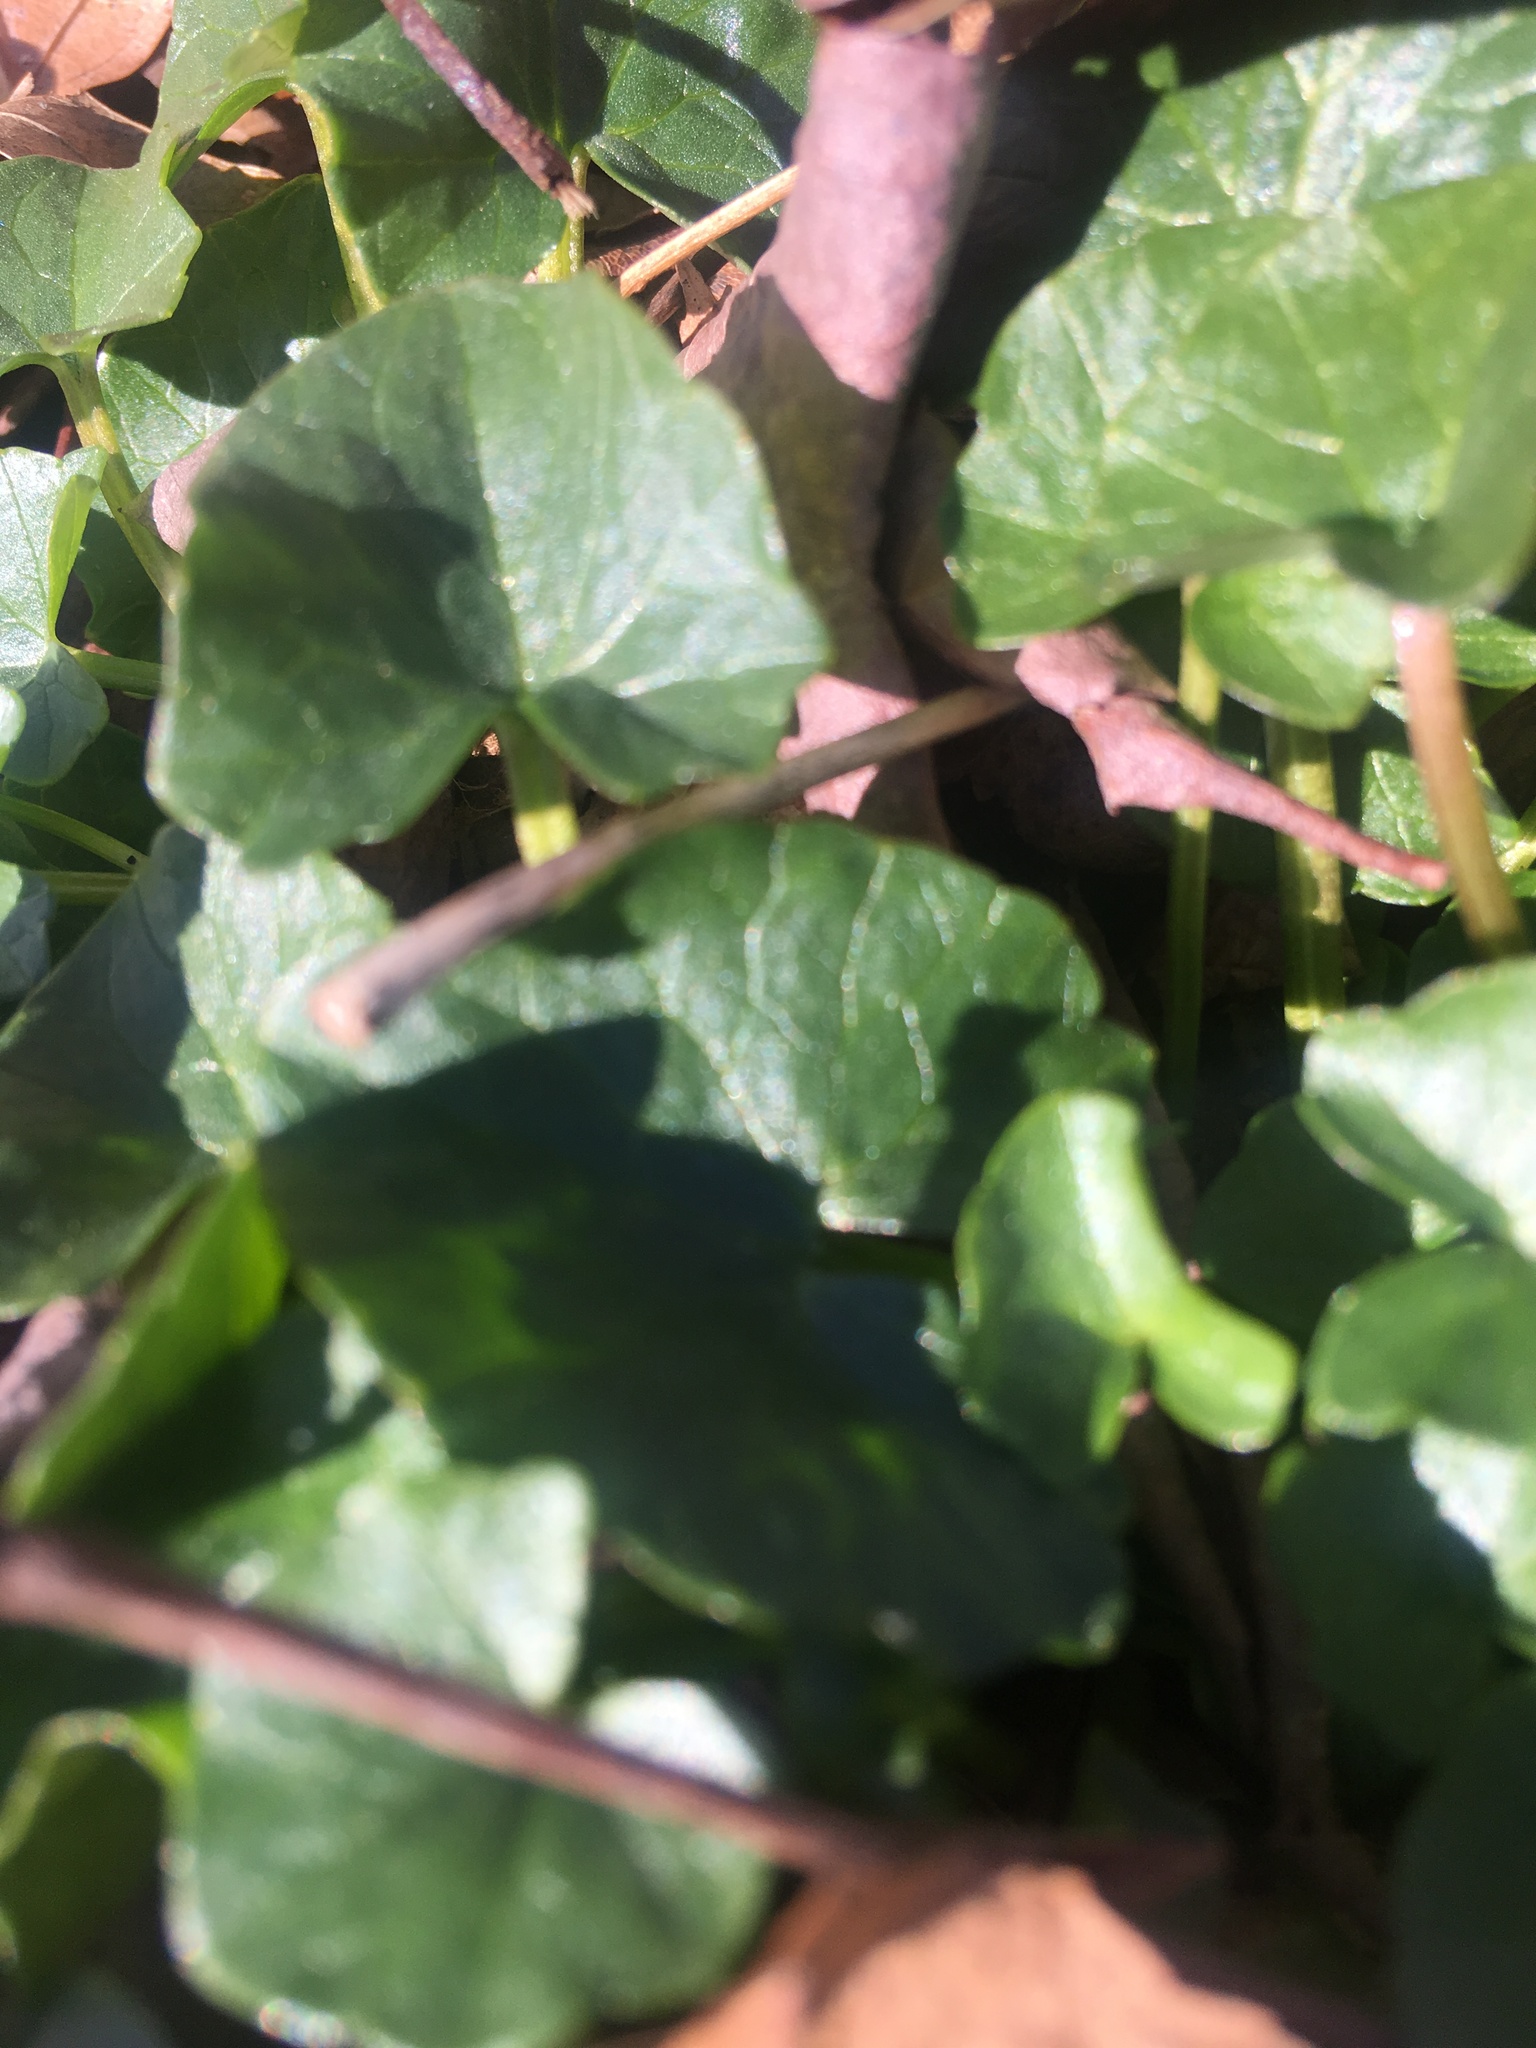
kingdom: Plantae
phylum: Tracheophyta
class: Magnoliopsida
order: Ranunculales
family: Ranunculaceae
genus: Ficaria
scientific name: Ficaria verna
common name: Lesser celandine
